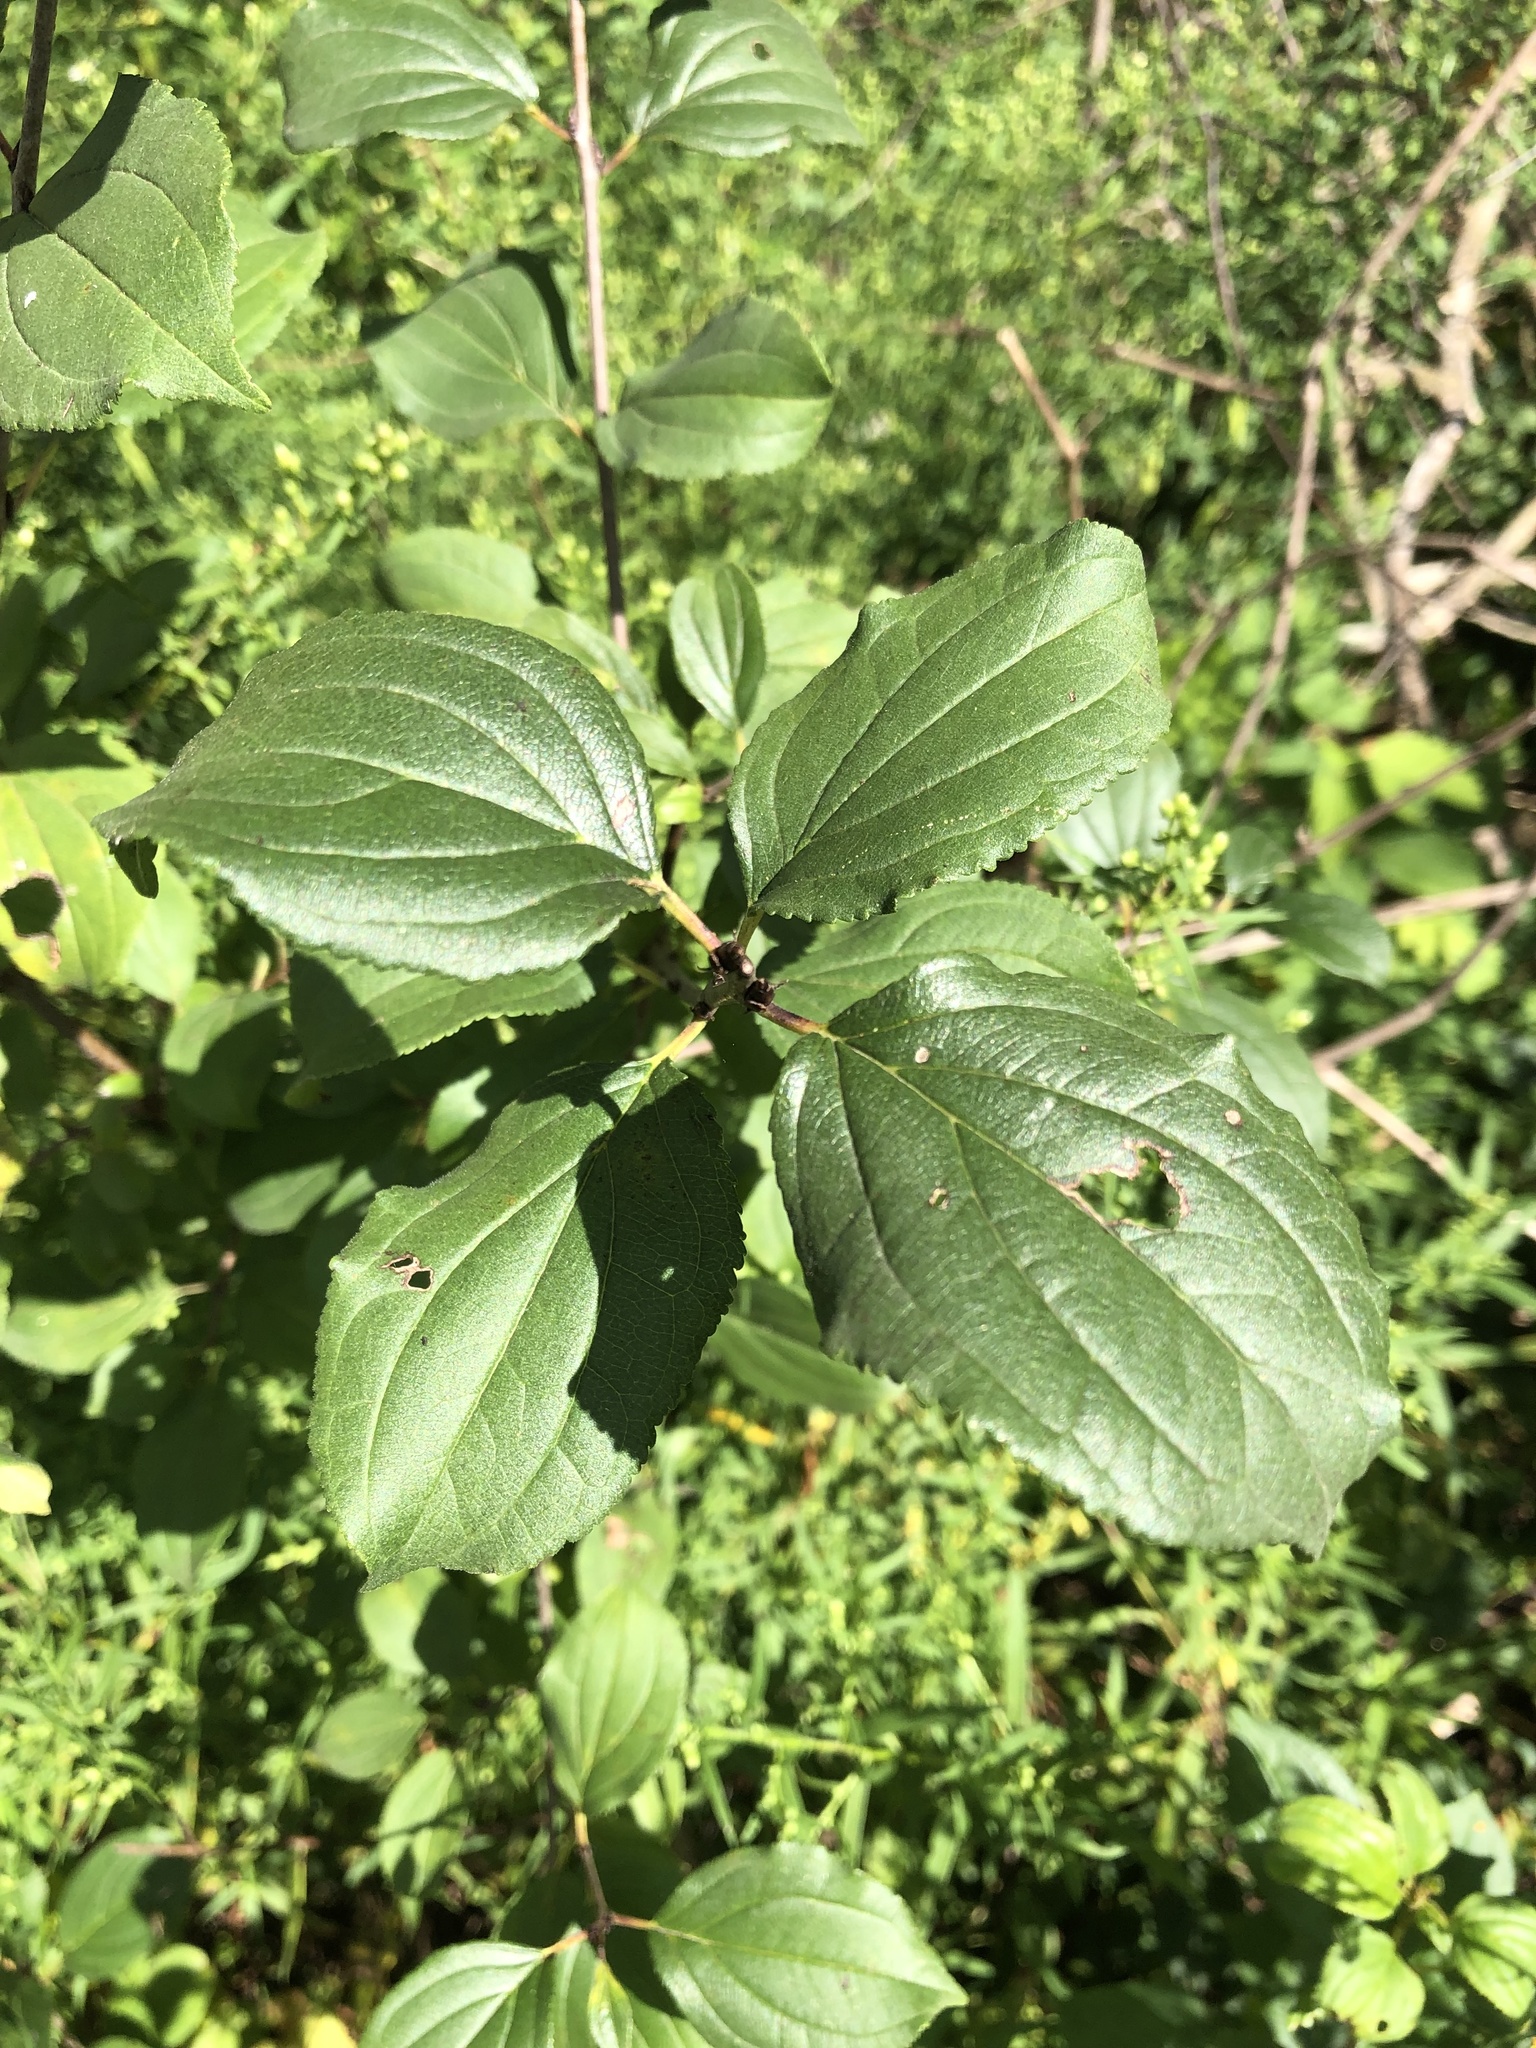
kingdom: Plantae
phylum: Tracheophyta
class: Magnoliopsida
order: Rosales
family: Rhamnaceae
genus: Rhamnus
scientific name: Rhamnus cathartica
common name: Common buckthorn
